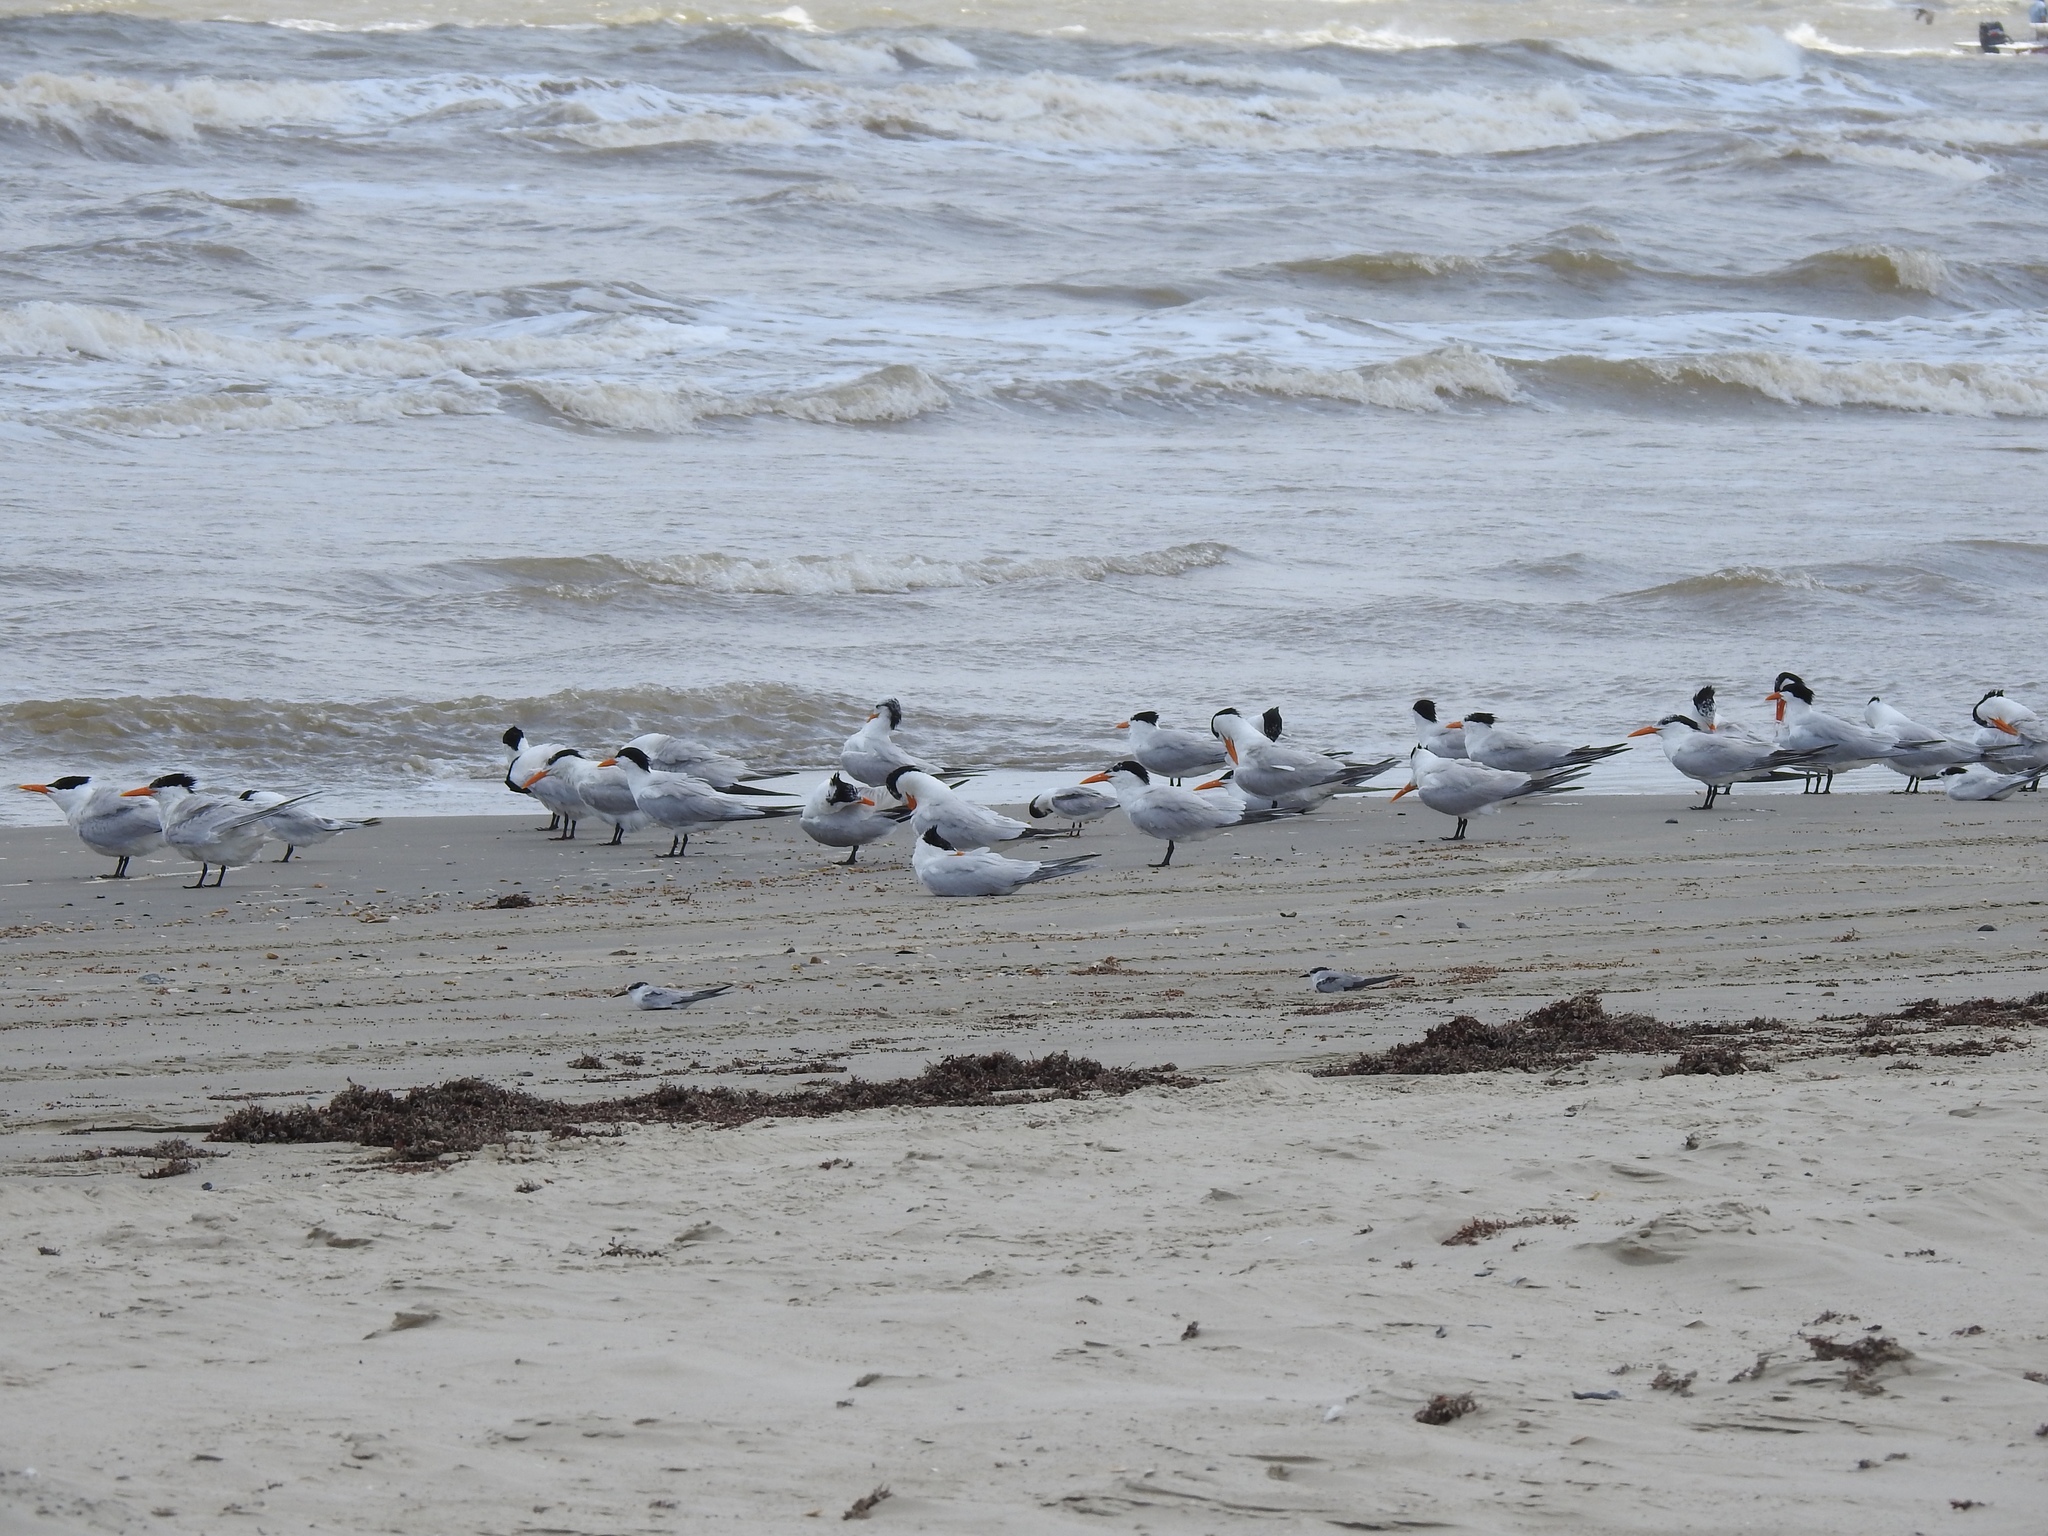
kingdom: Animalia
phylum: Chordata
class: Aves
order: Charadriiformes
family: Laridae
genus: Thalasseus
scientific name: Thalasseus maximus
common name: Royal tern
